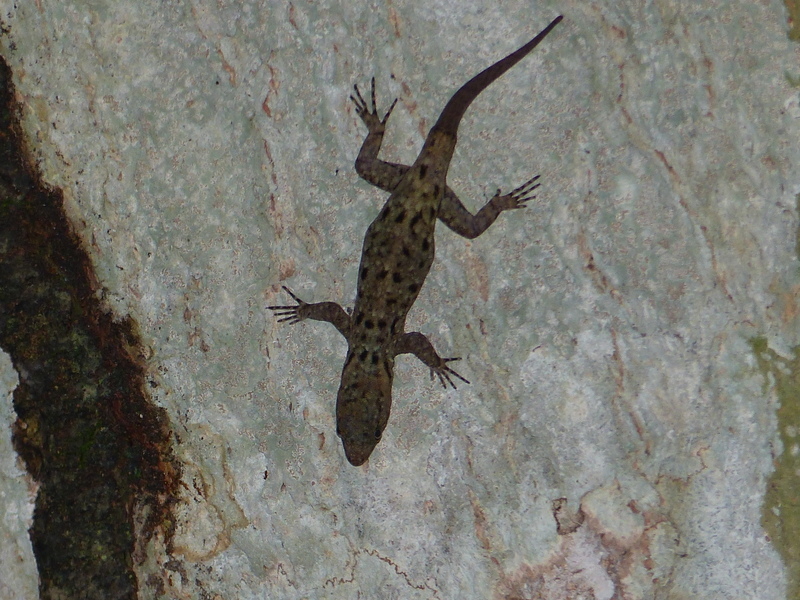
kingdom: Animalia
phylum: Chordata
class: Squamata
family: Sphaerodactylidae
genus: Gonatodes
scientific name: Gonatodes albogularis
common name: Yellow-headed gecko
